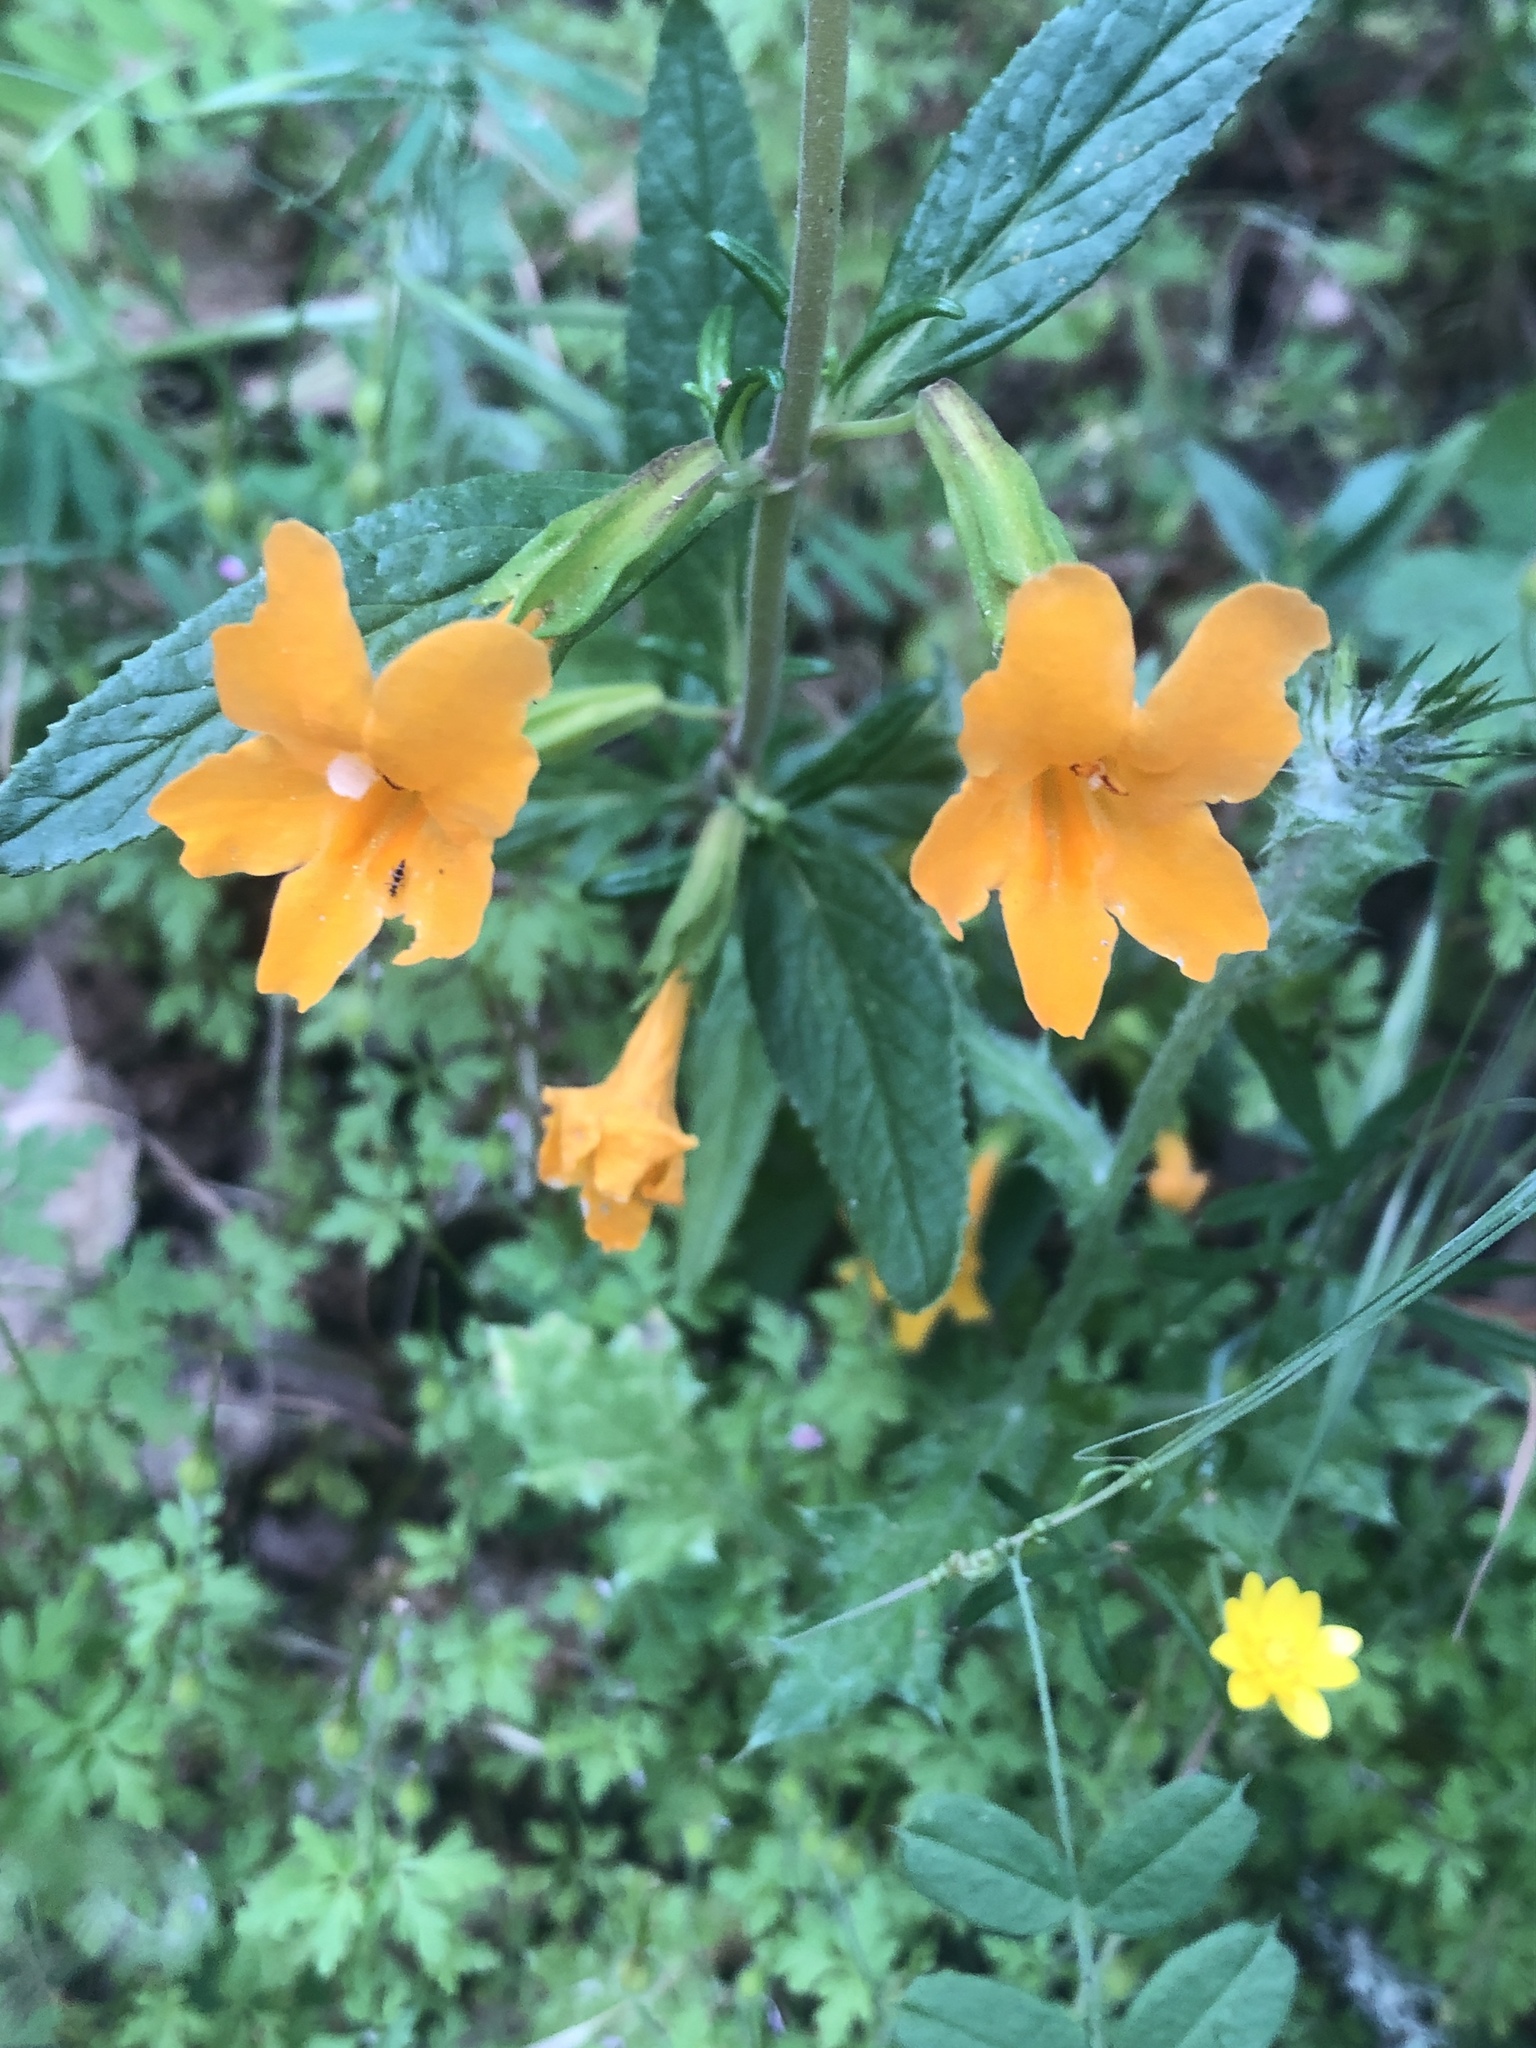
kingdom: Plantae
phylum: Tracheophyta
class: Magnoliopsida
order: Lamiales
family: Phrymaceae
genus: Diplacus
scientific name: Diplacus aurantiacus
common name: Bush monkey-flower
